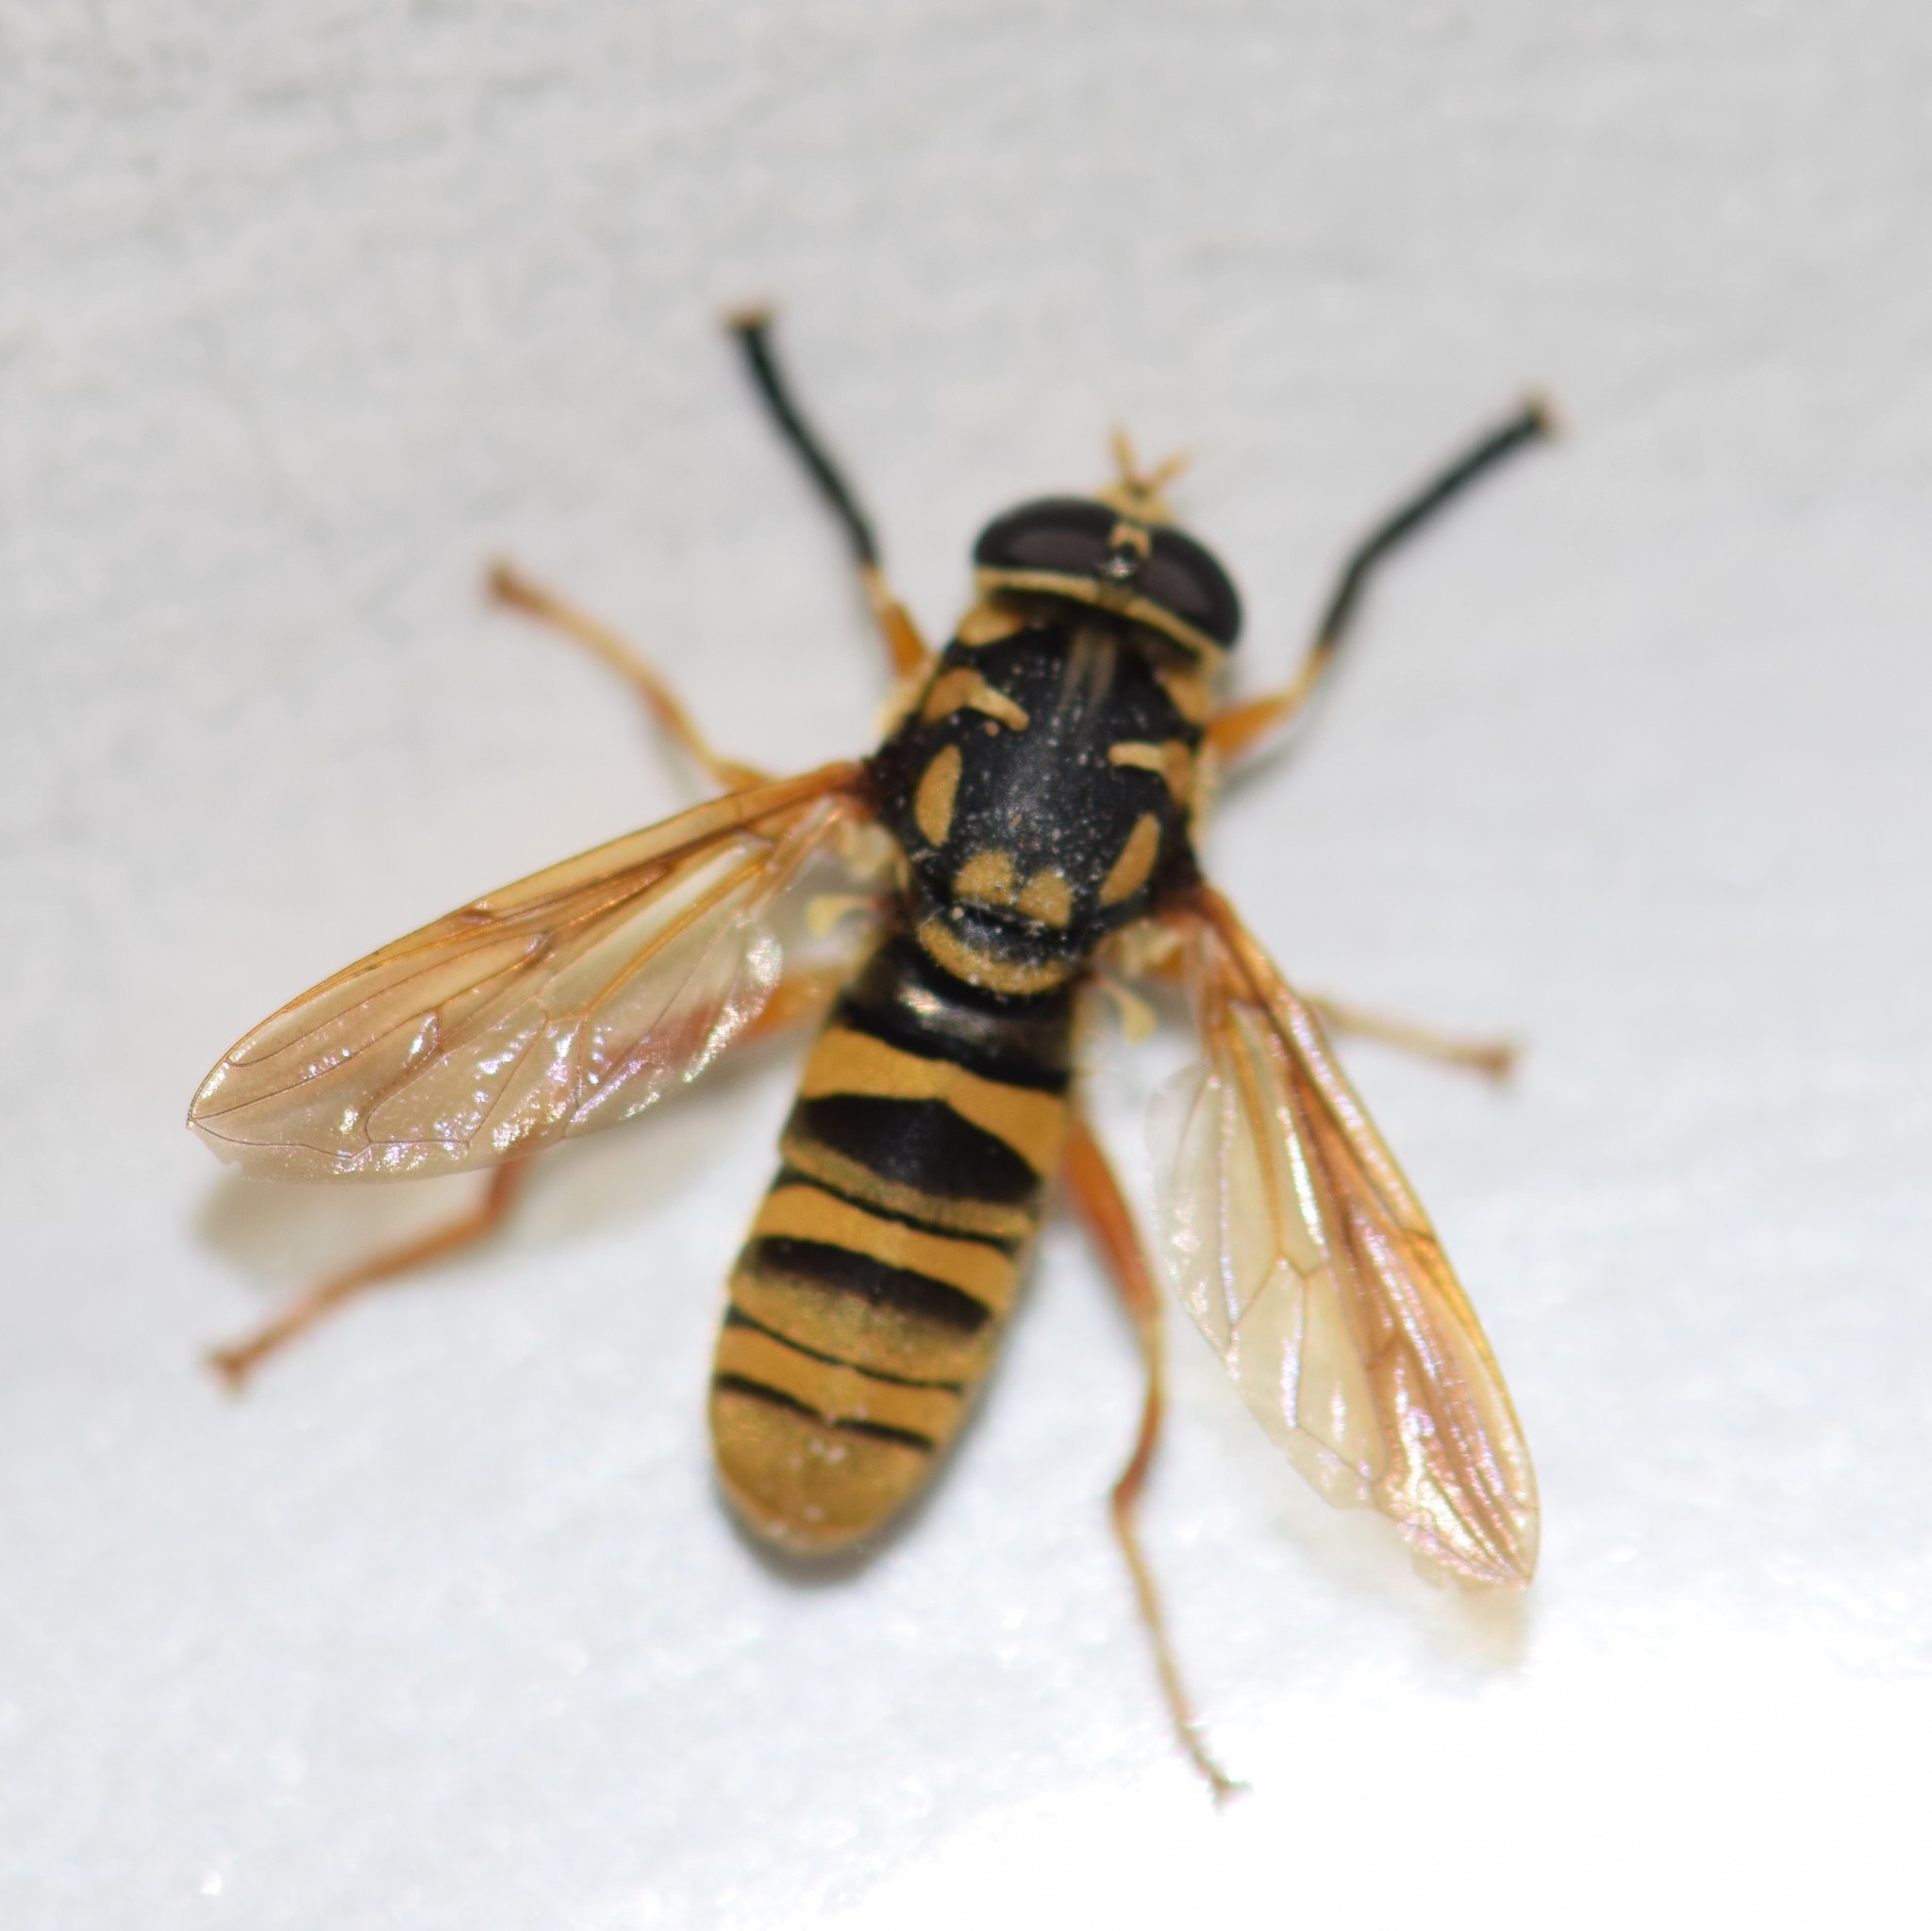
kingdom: Animalia
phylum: Arthropoda
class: Insecta
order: Diptera
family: Syrphidae
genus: Temnostoma
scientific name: Temnostoma daochum
